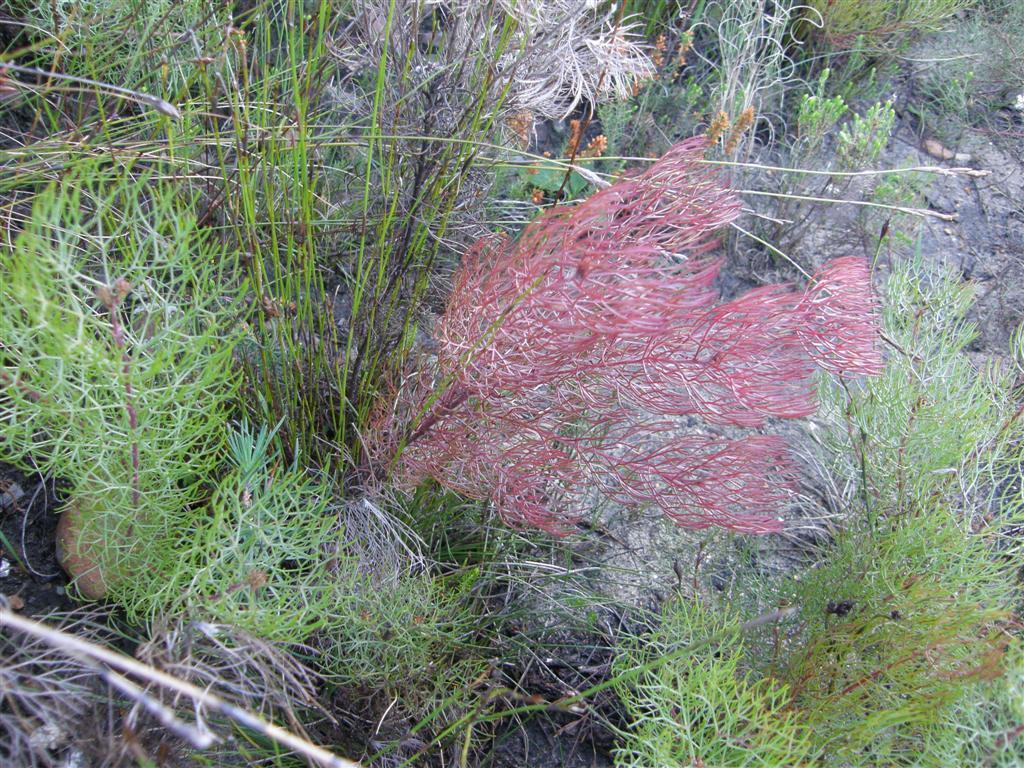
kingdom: Plantae
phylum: Tracheophyta
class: Magnoliopsida
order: Proteales
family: Proteaceae
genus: Serruria
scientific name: Serruria fasciflora
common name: Common pin spiderhead
